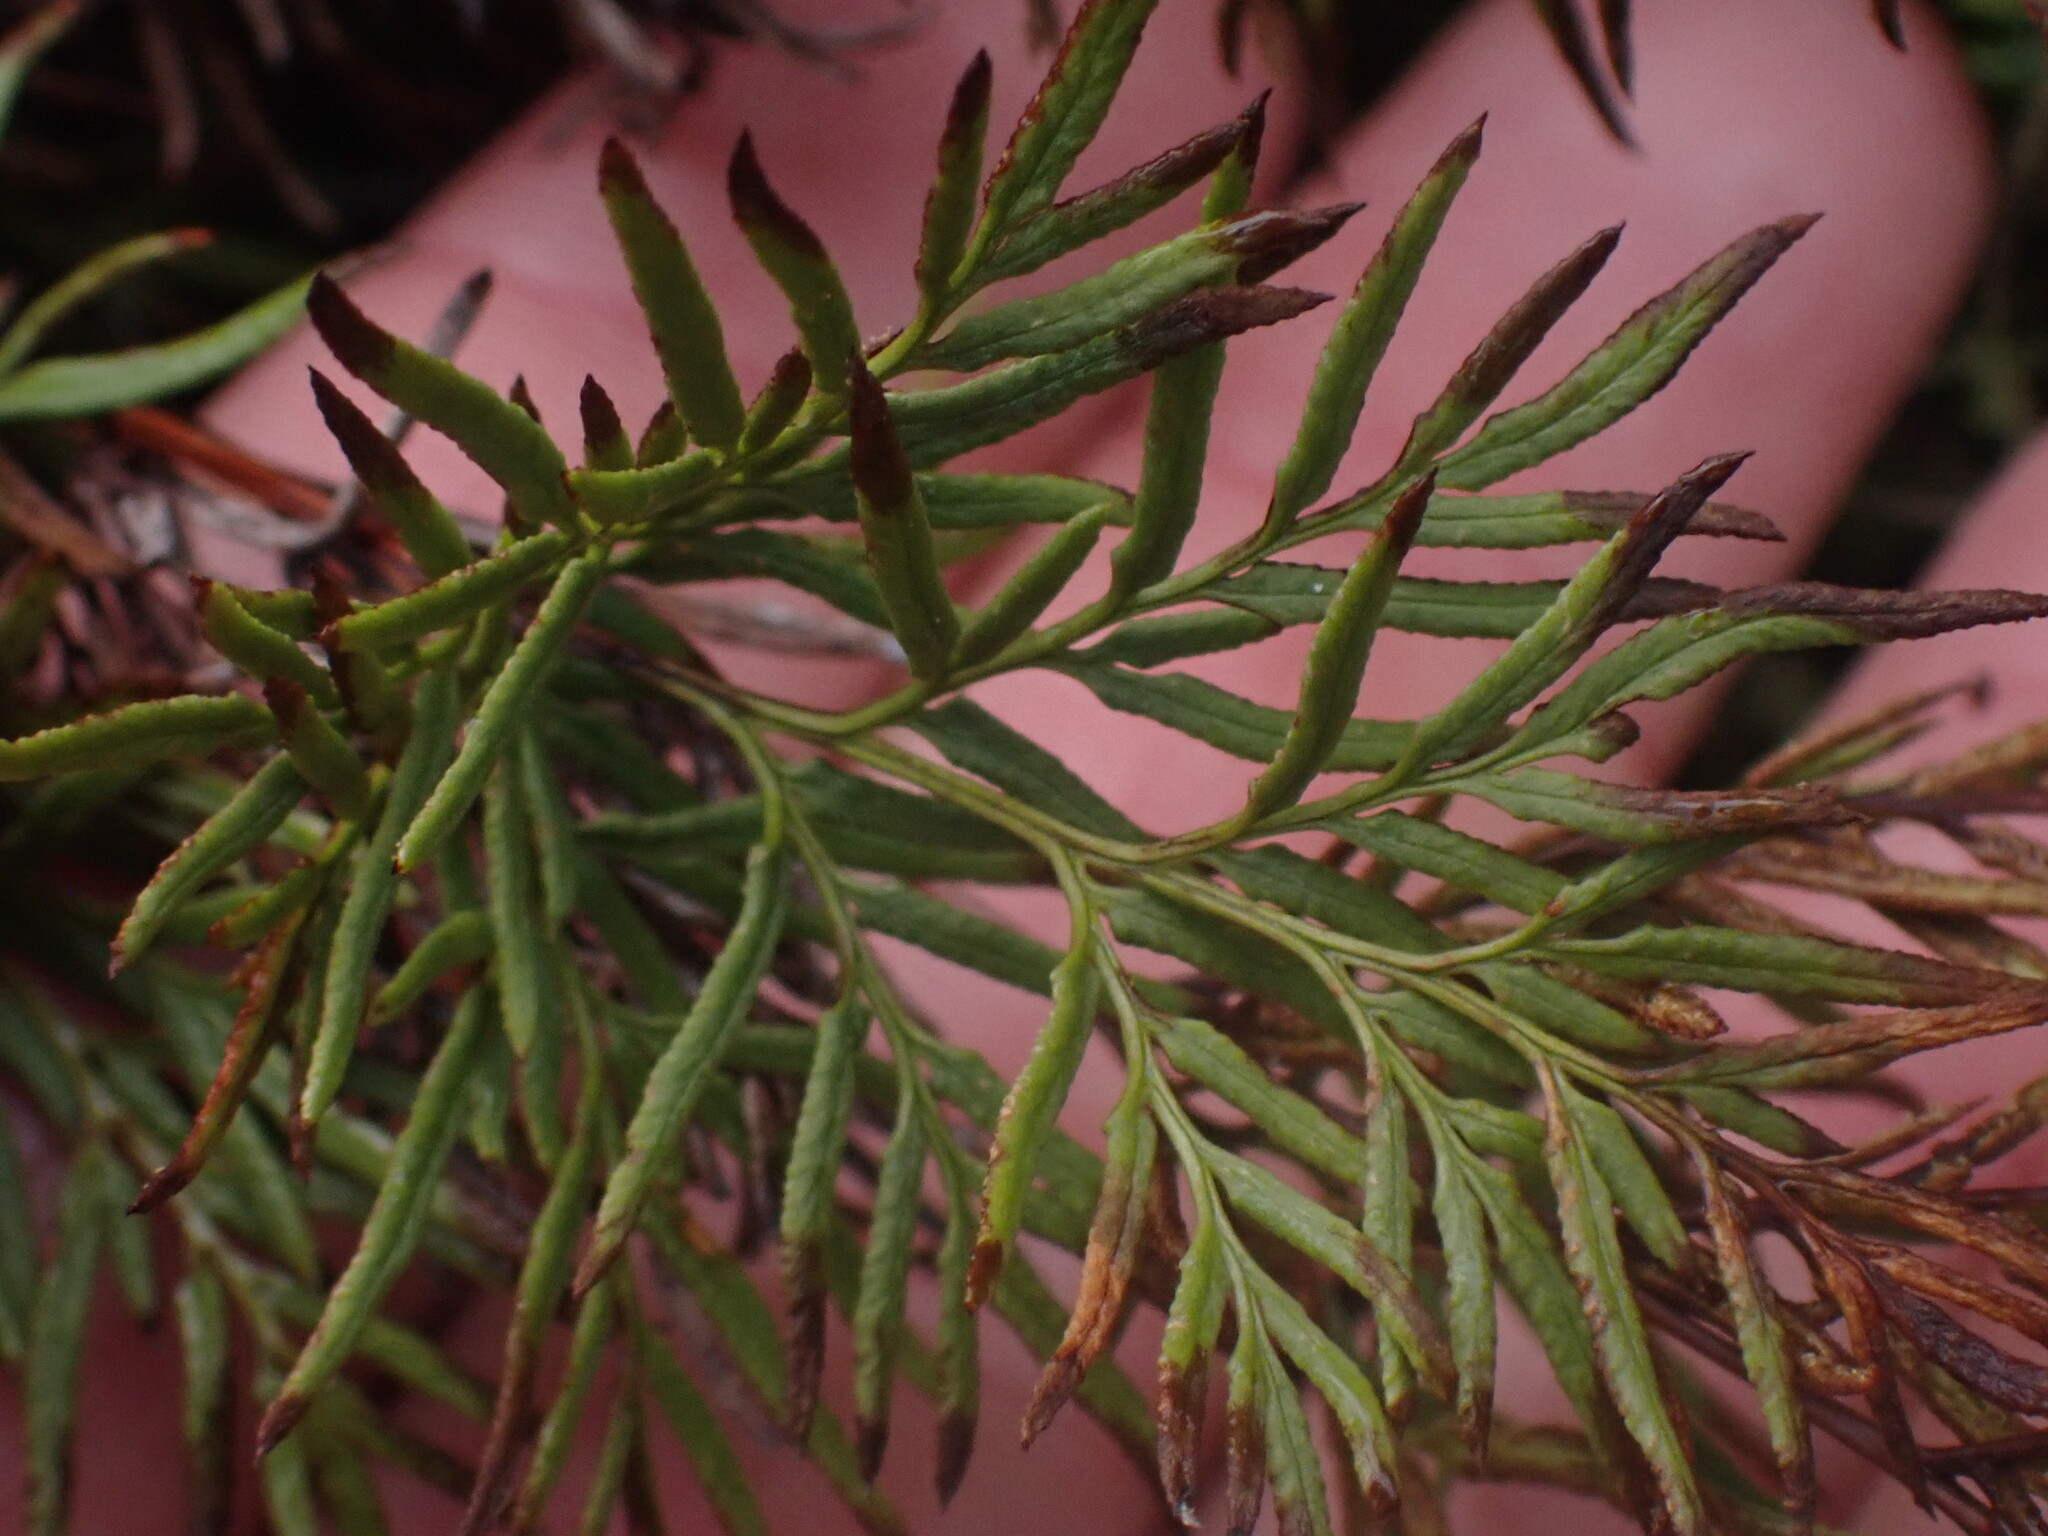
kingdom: Plantae
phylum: Tracheophyta
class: Polypodiopsida
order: Polypodiales
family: Pteridaceae
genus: Aspidotis
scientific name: Aspidotis densa
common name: Indian's dream
